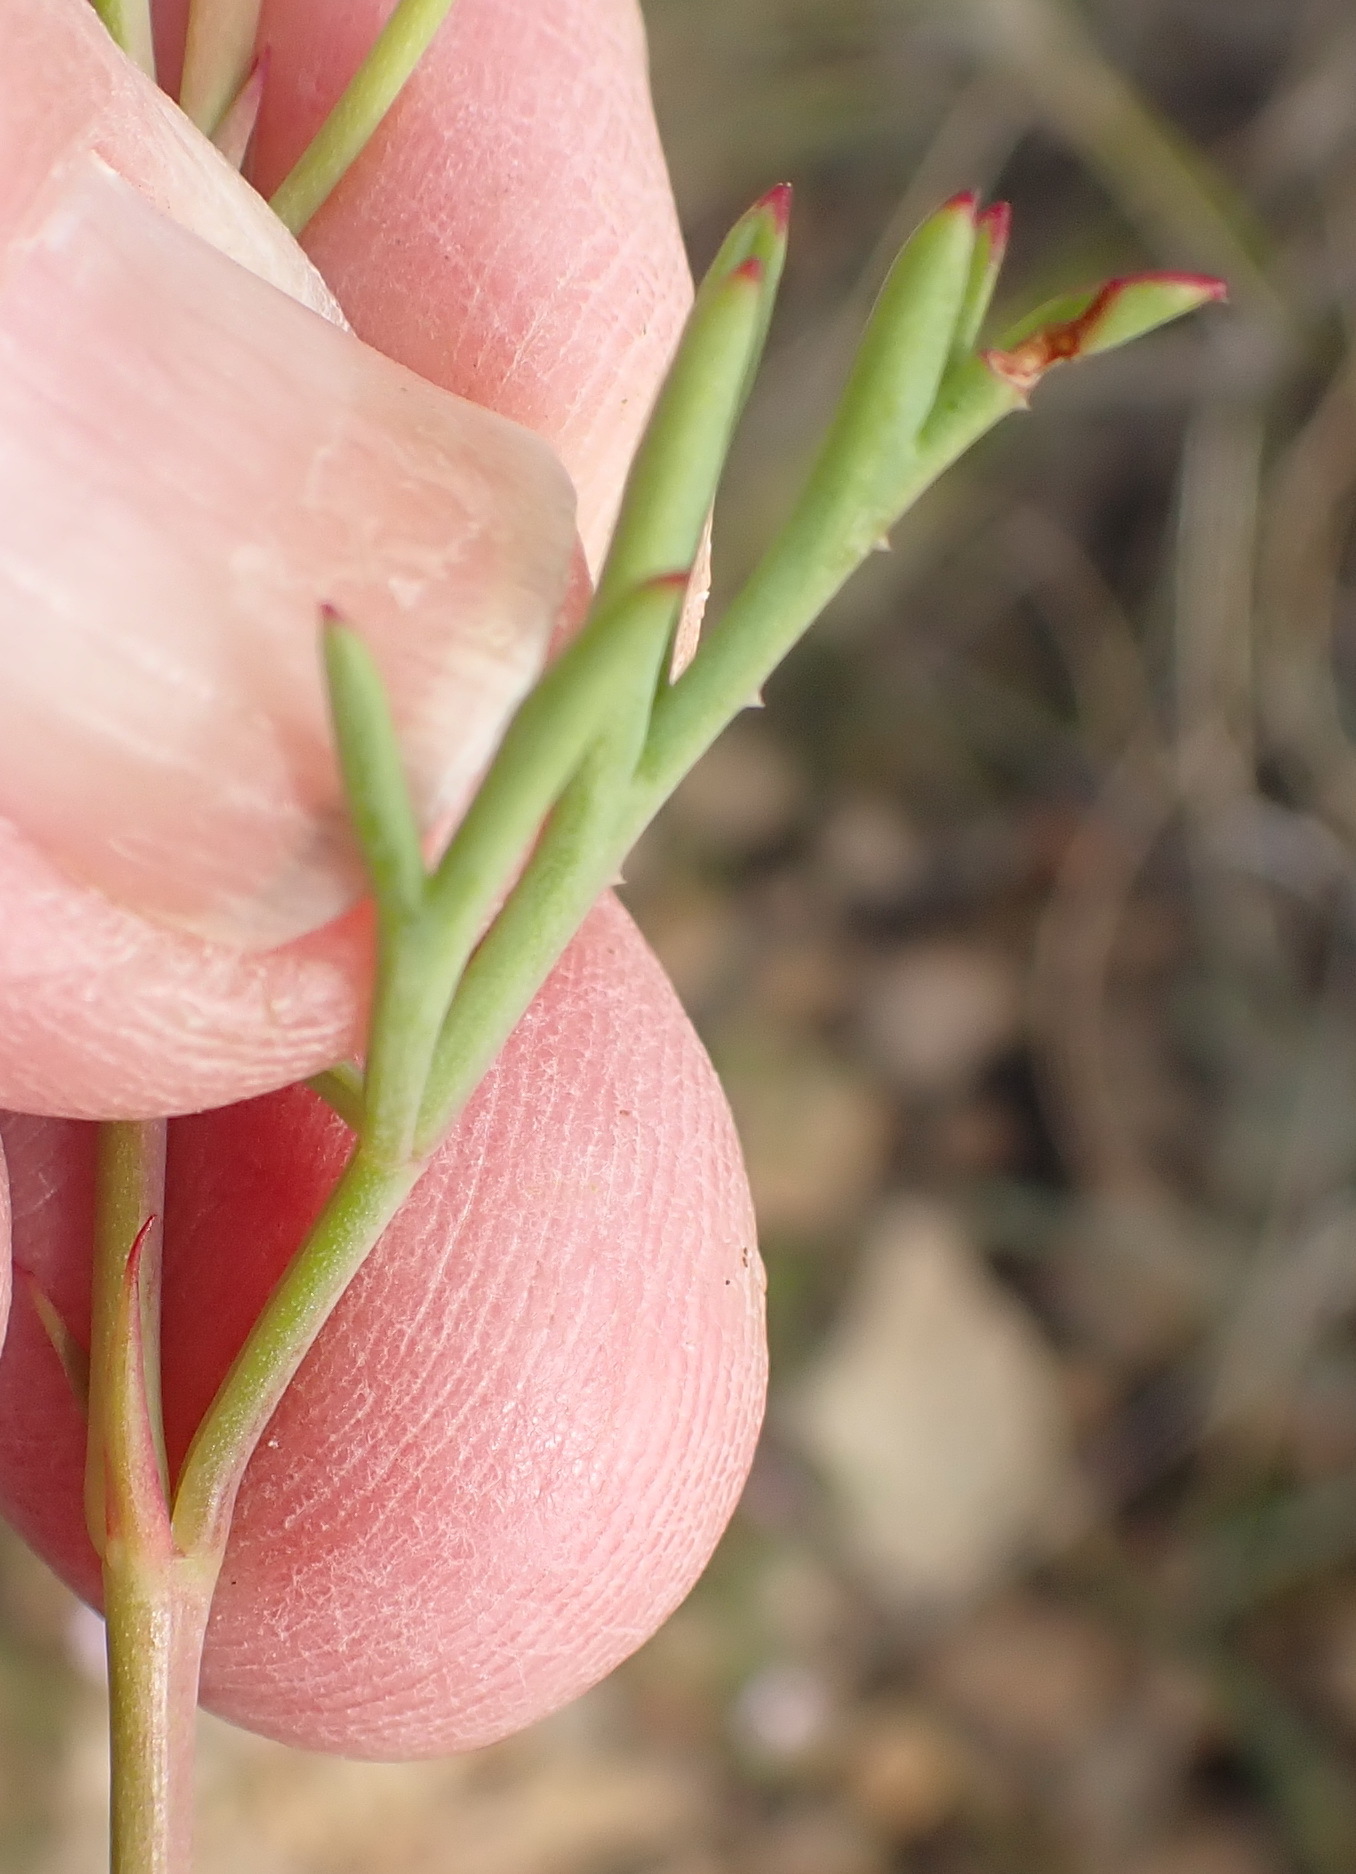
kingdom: Plantae
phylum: Tracheophyta
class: Magnoliopsida
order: Geraniales
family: Geraniaceae
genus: Pelargonium
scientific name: Pelargonium laevigatum
